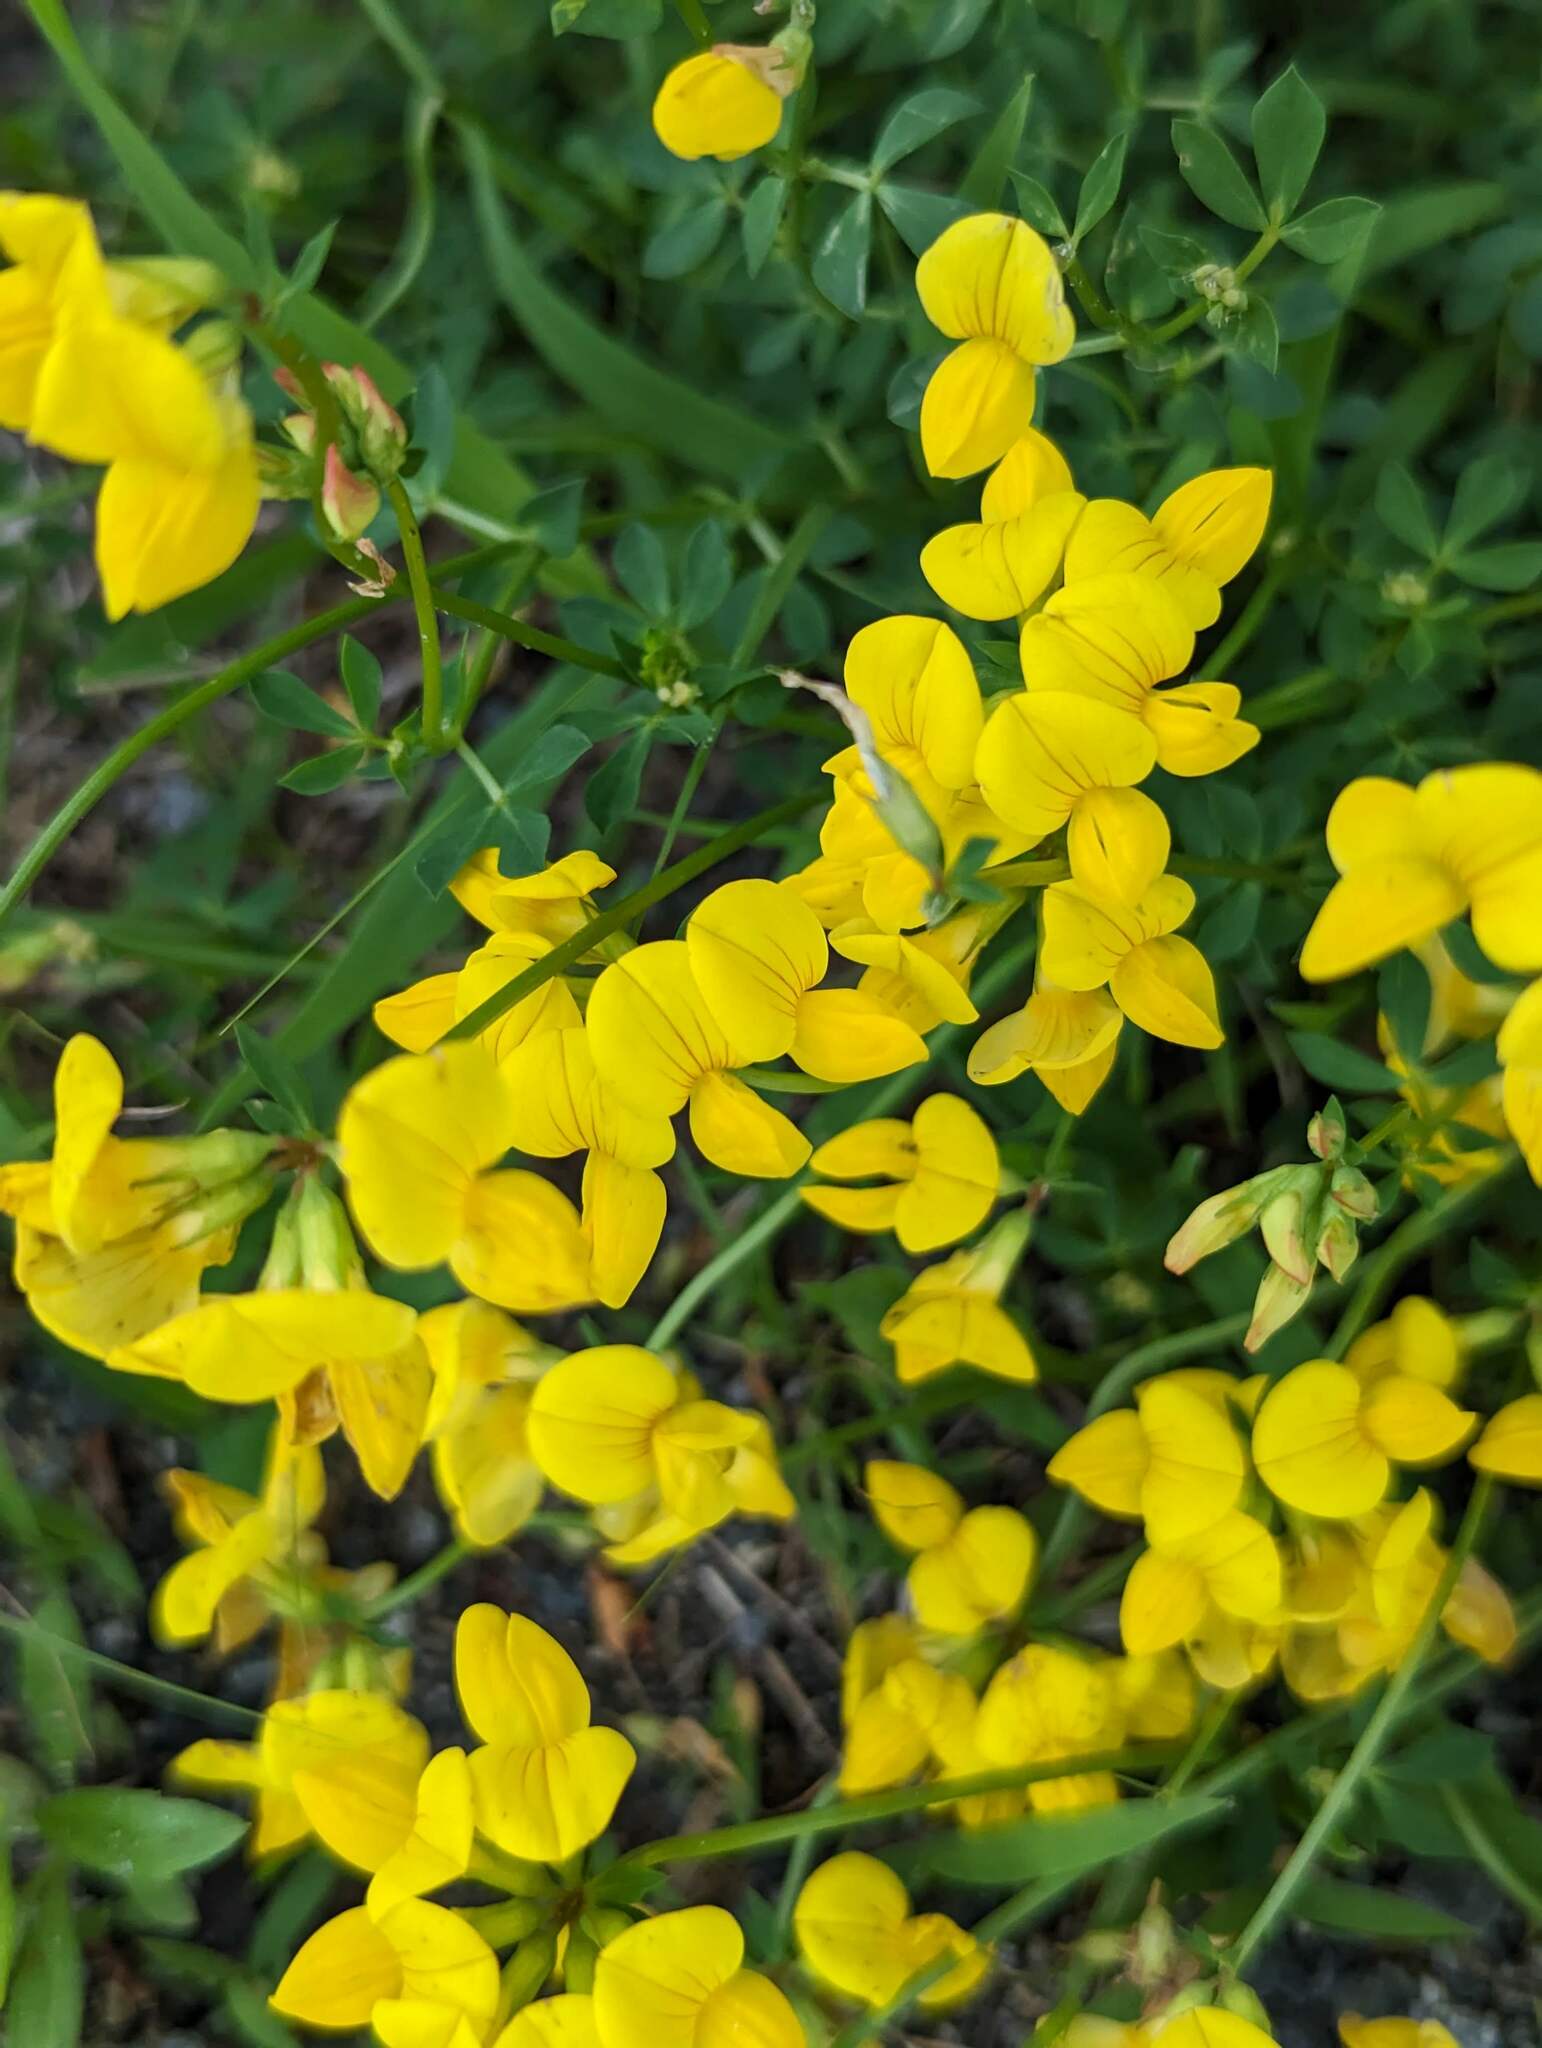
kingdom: Plantae
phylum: Tracheophyta
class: Magnoliopsida
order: Fabales
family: Fabaceae
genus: Lotus
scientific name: Lotus corniculatus
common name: Common bird's-foot-trefoil
